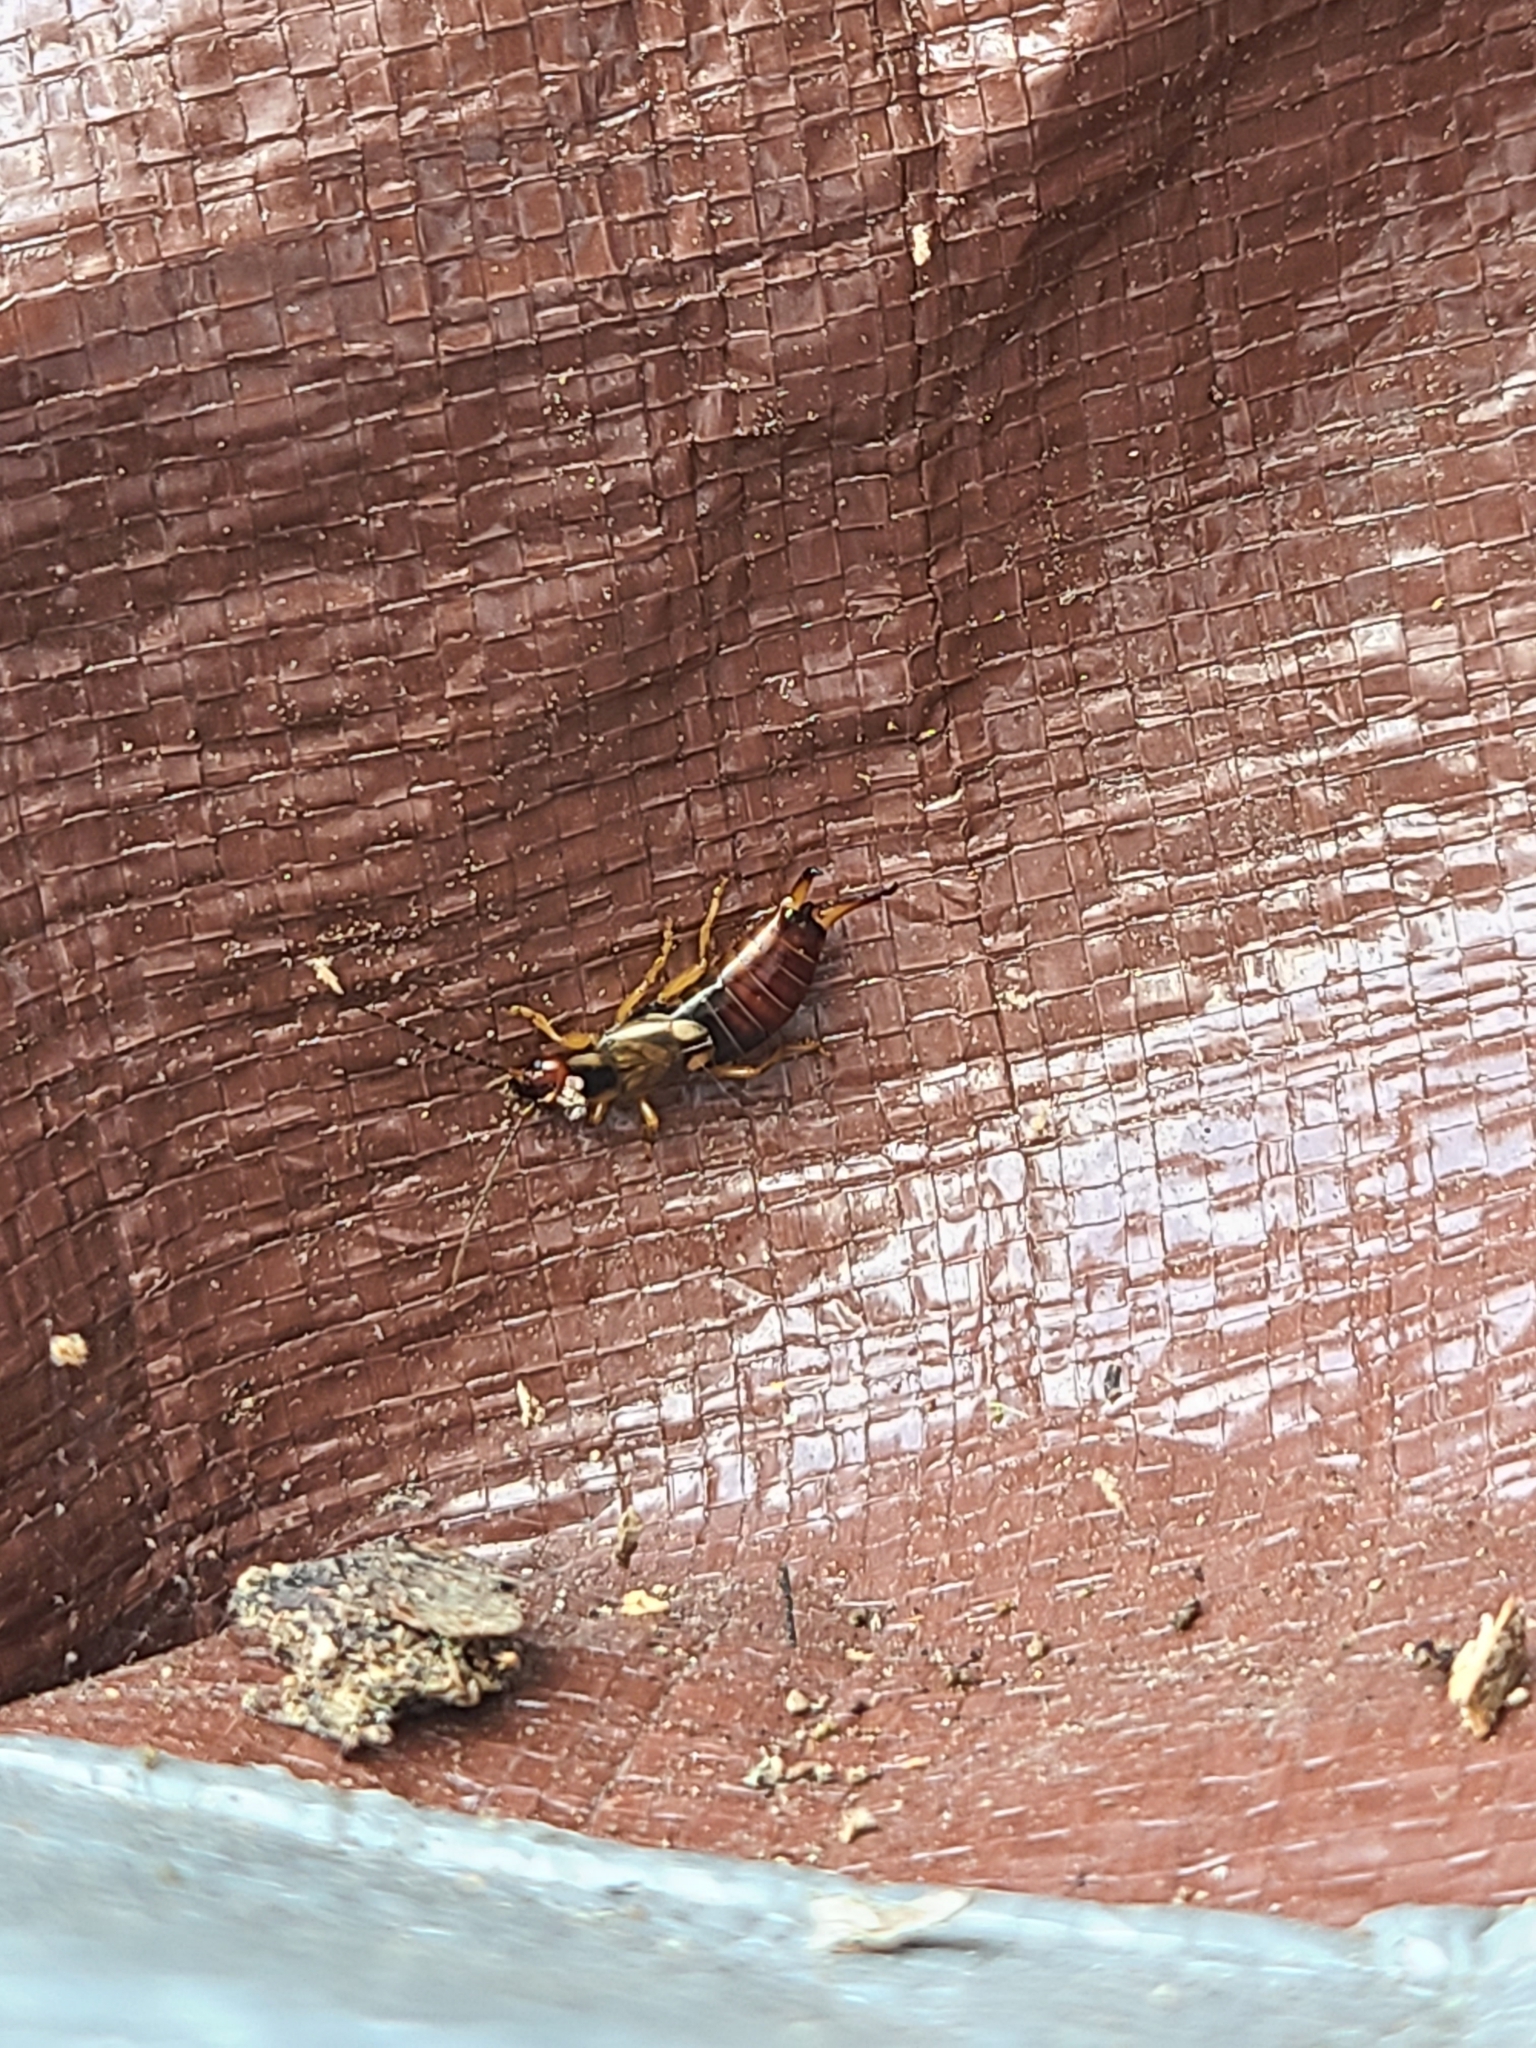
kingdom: Animalia
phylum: Arthropoda
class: Insecta
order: Dermaptera
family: Forficulidae
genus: Forficula
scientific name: Forficula
